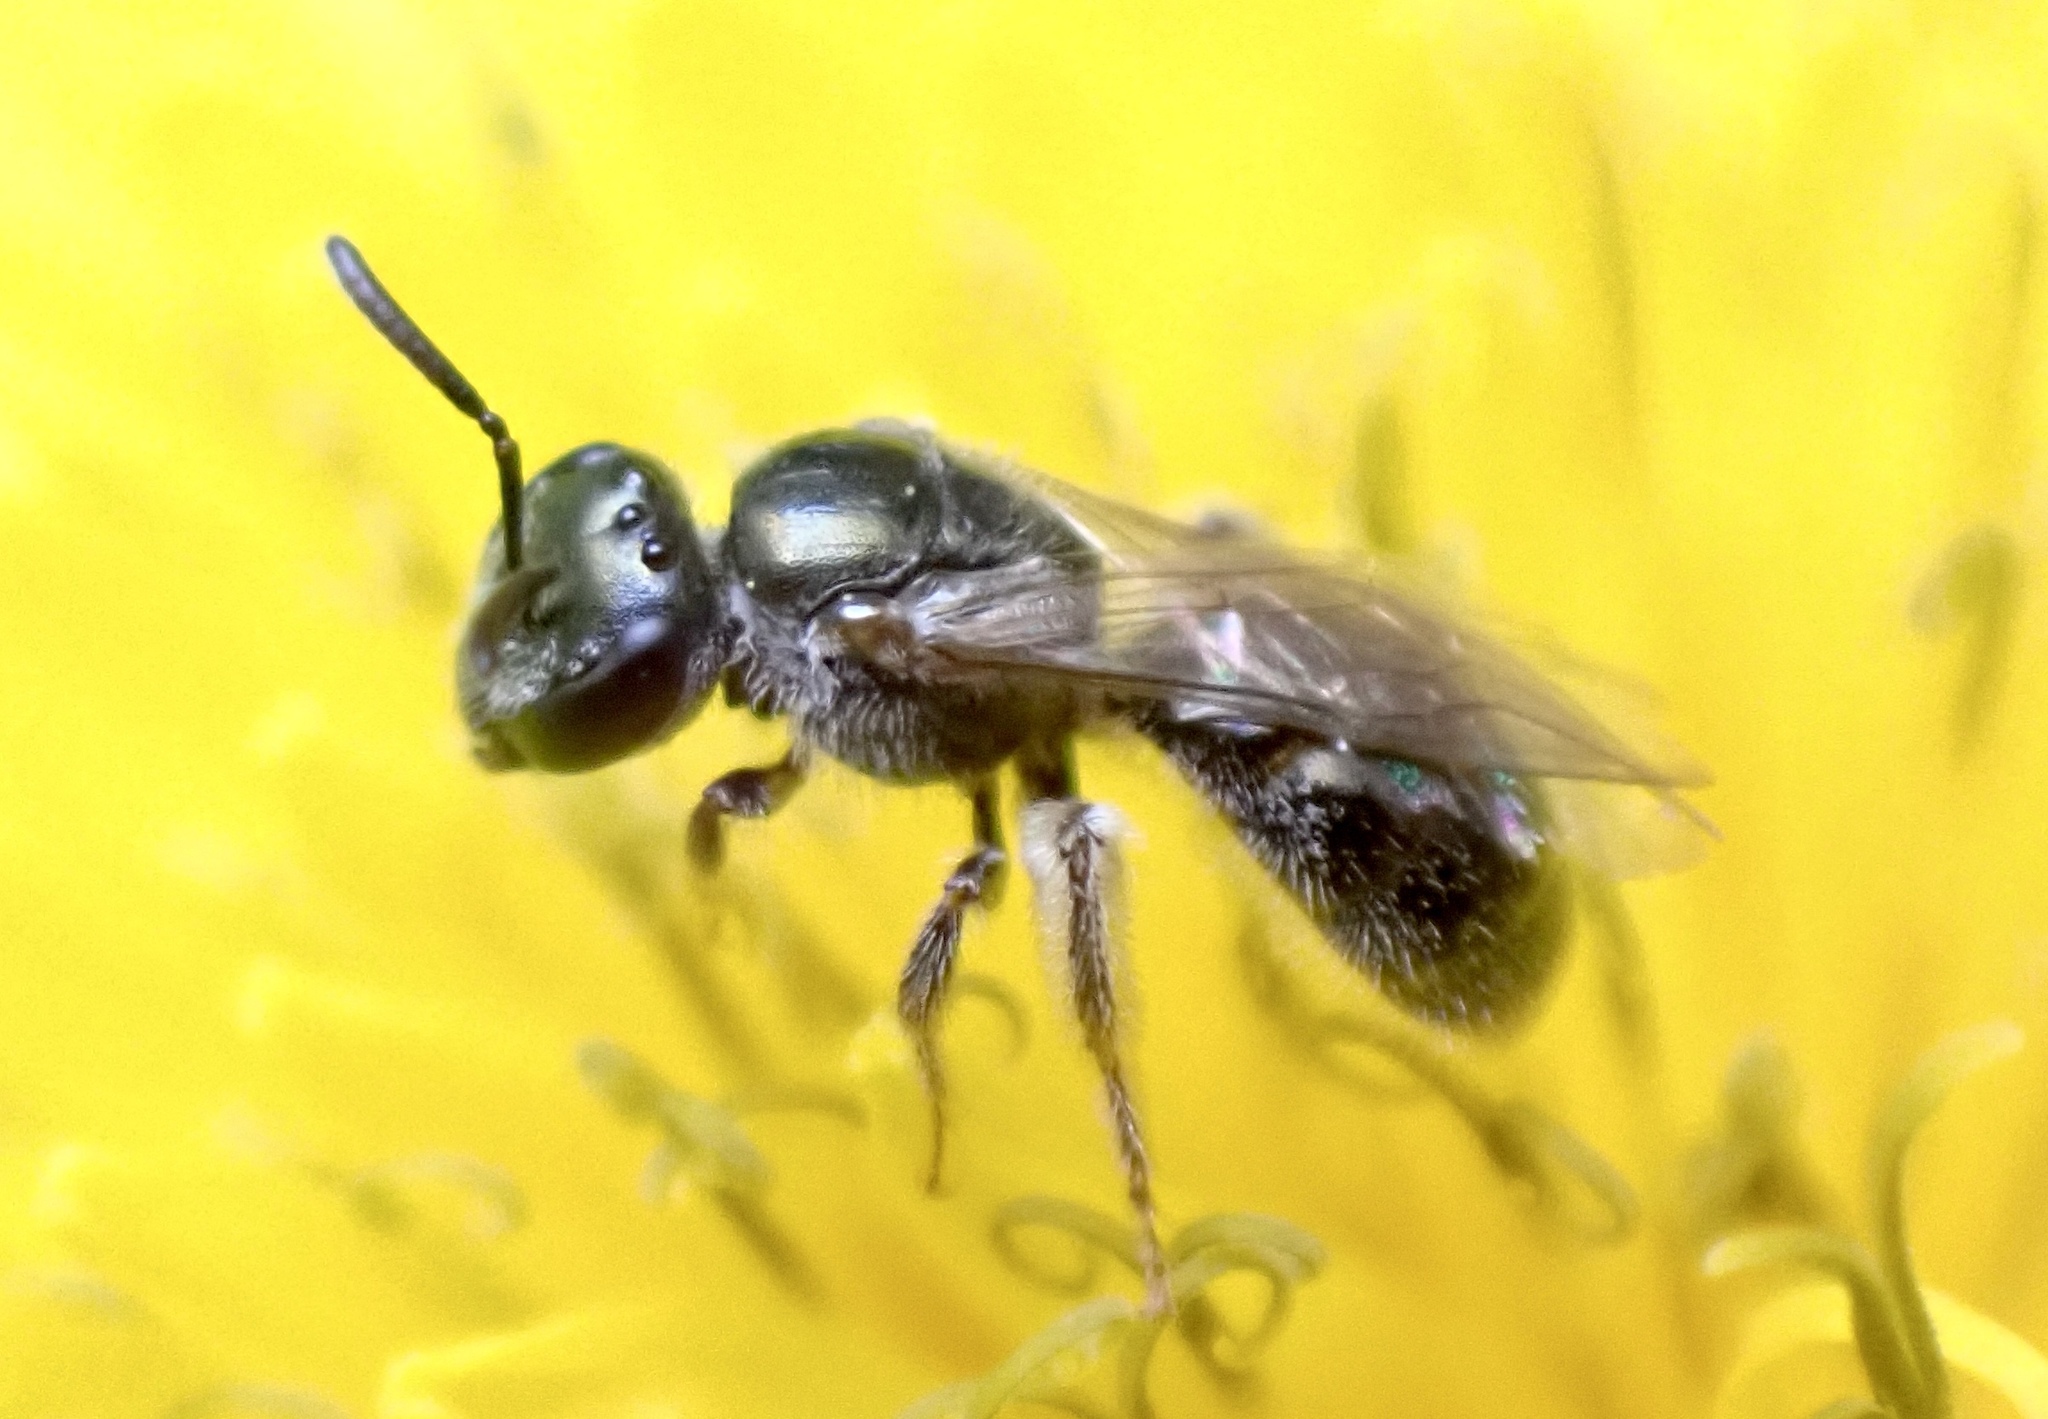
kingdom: Animalia
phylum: Arthropoda
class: Insecta
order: Hymenoptera
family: Halictidae
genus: Dialictus
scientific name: Dialictus
